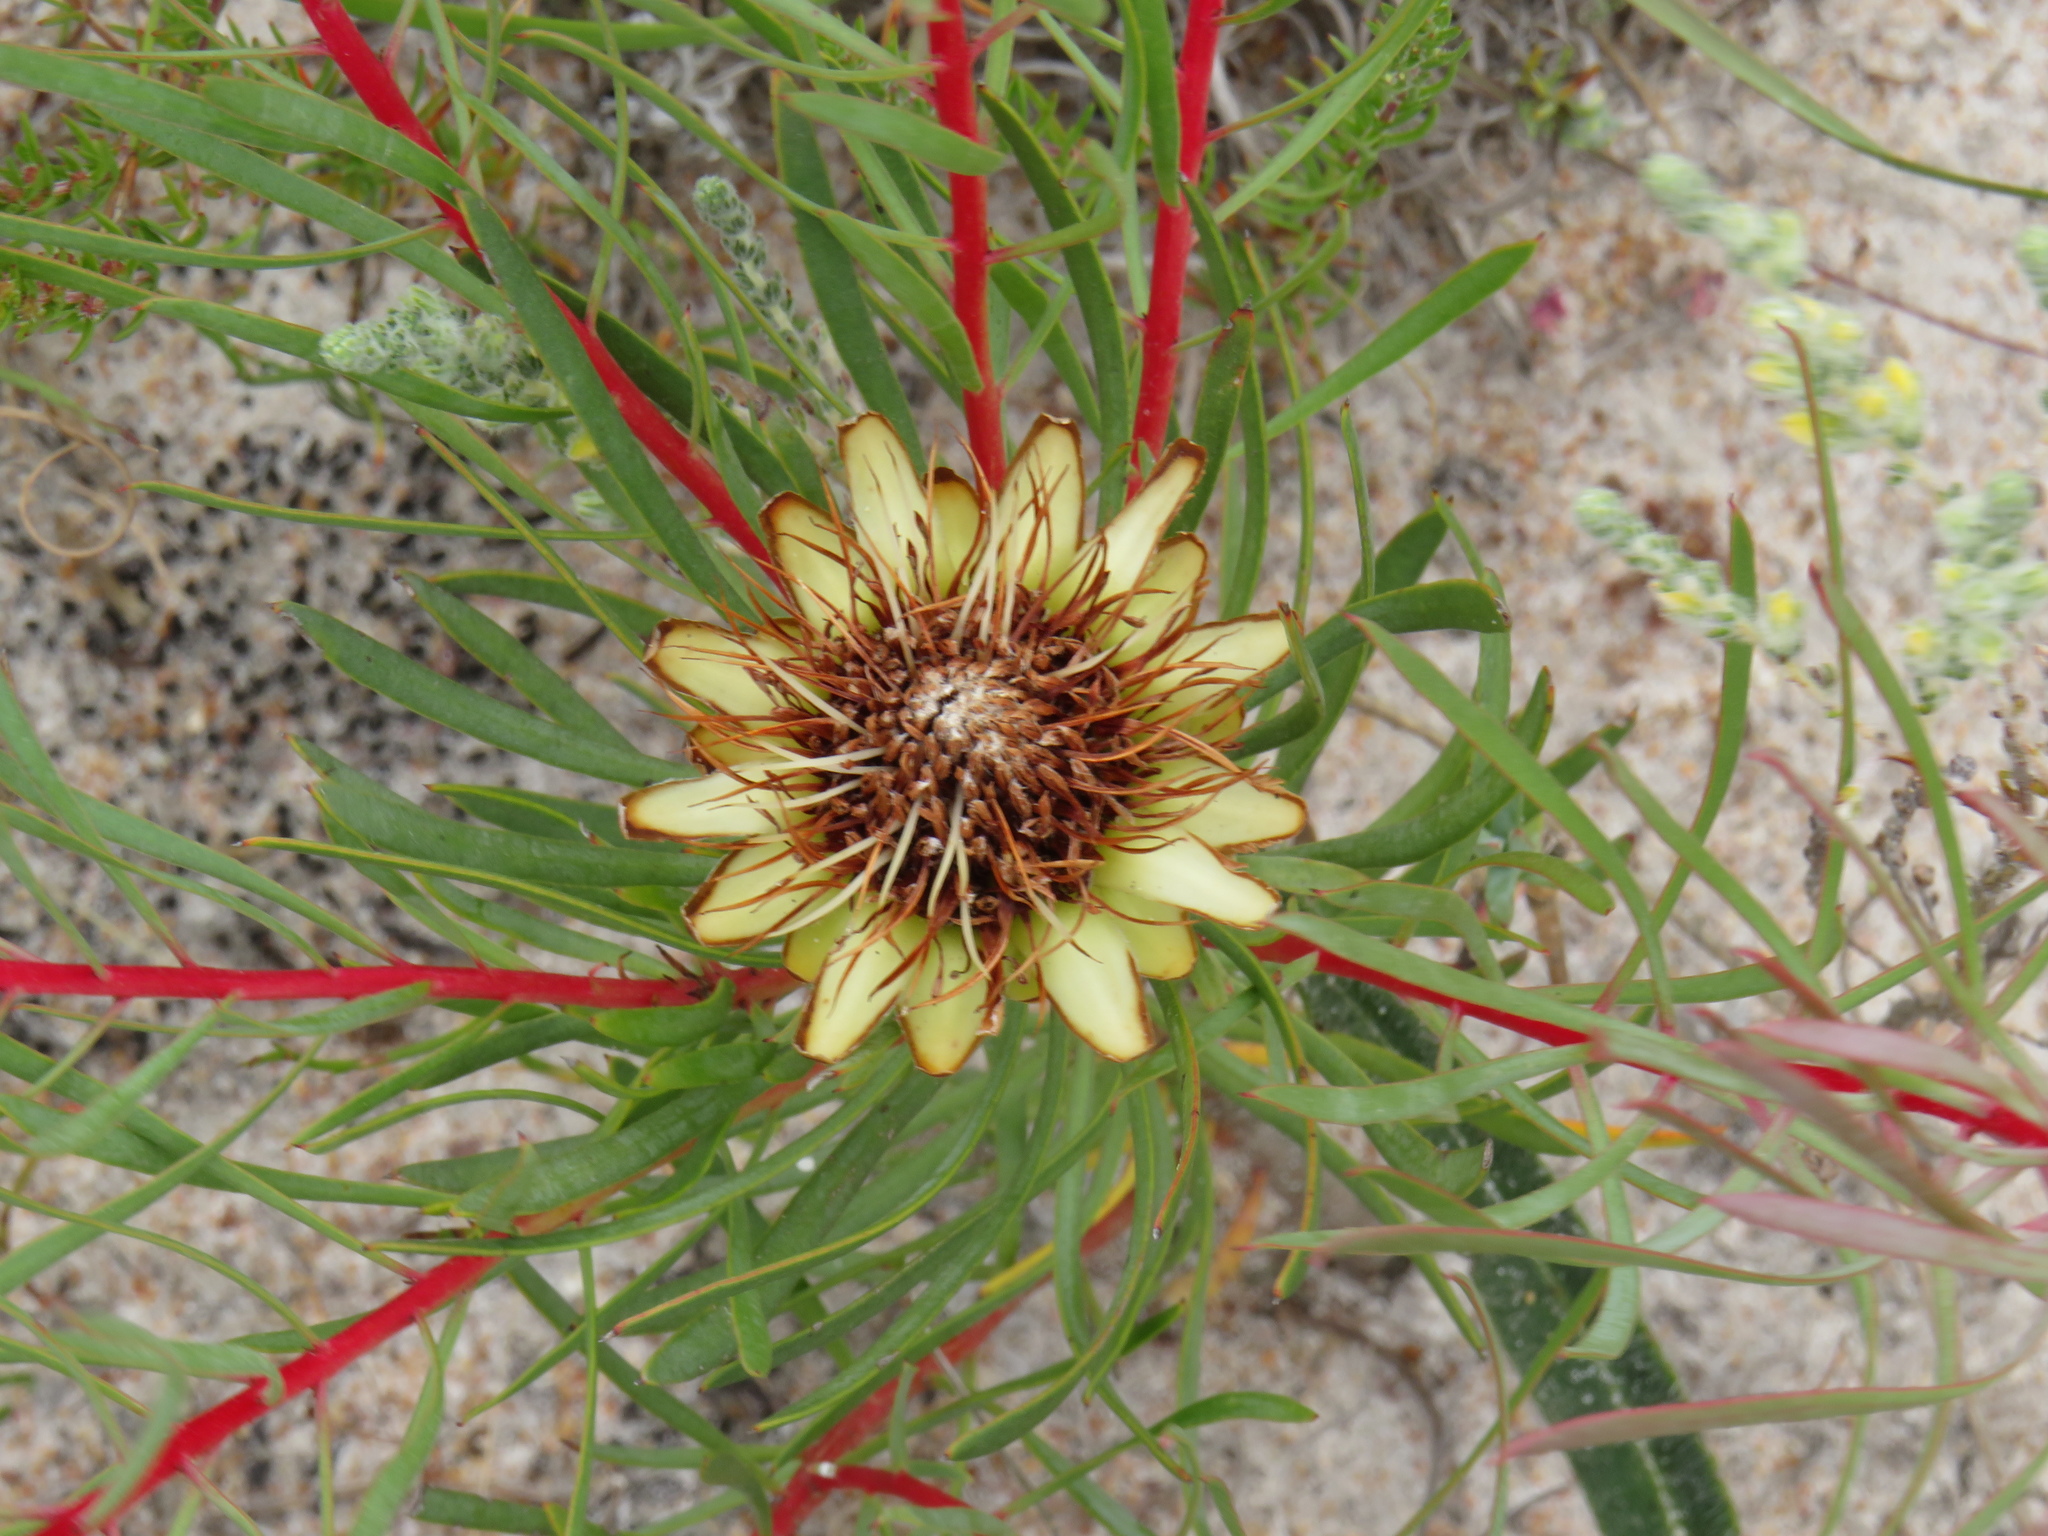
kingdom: Plantae
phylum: Tracheophyta
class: Magnoliopsida
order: Proteales
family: Proteaceae
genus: Protea
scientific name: Protea scolymocephala
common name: Thistle sugarbush
